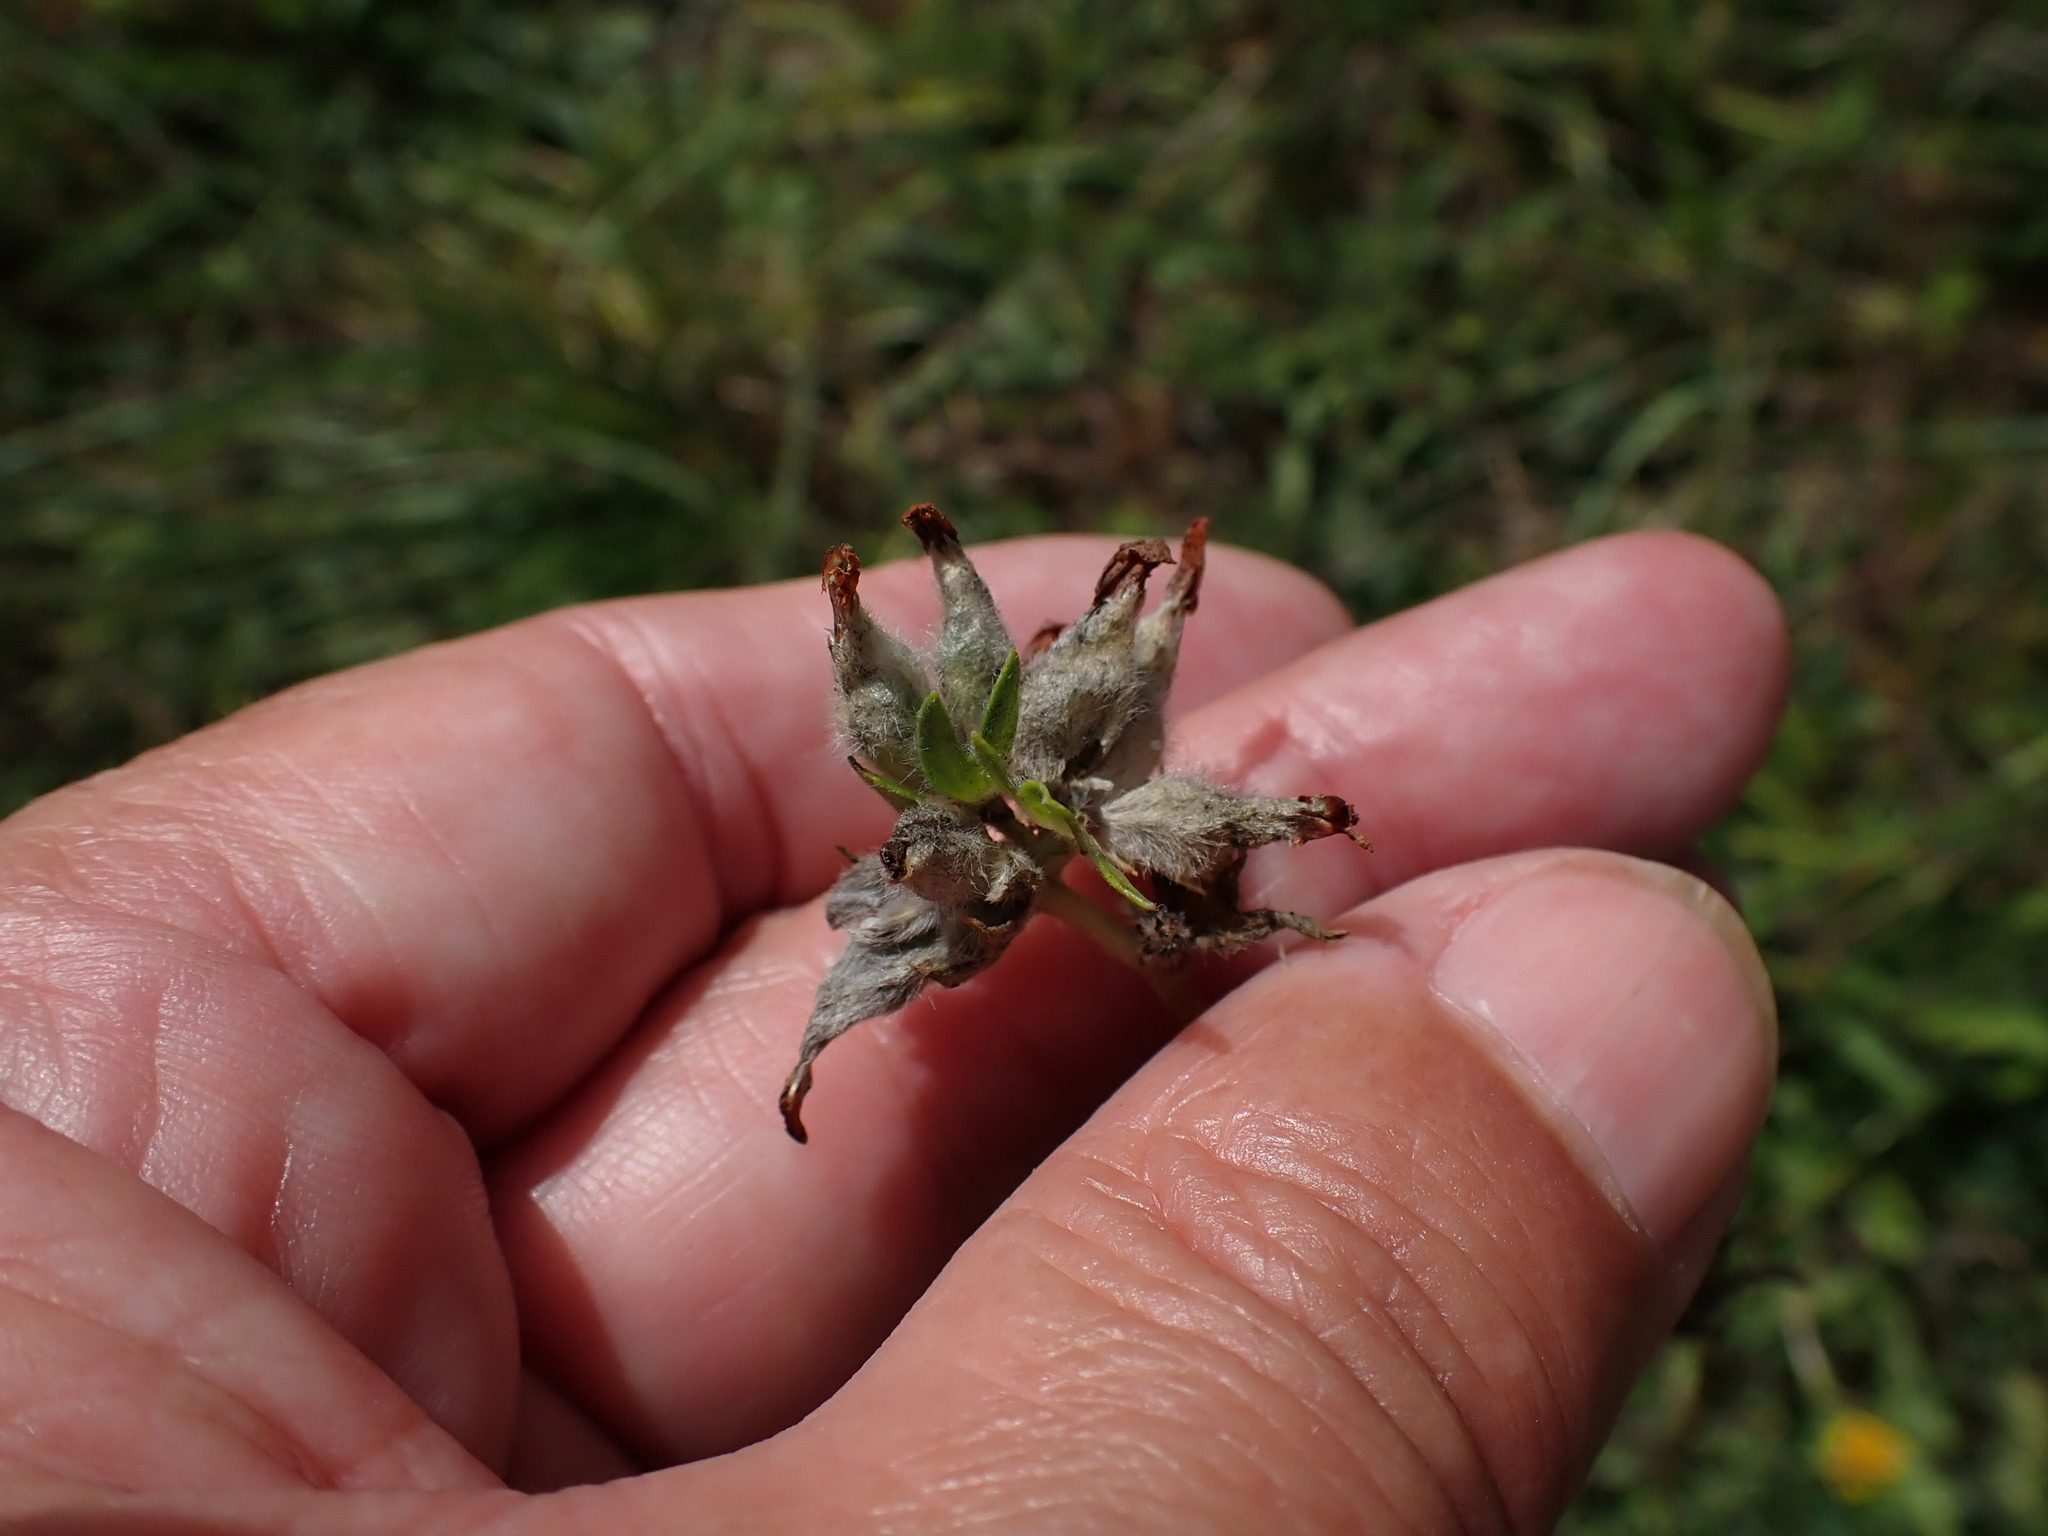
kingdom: Plantae
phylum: Tracheophyta
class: Magnoliopsida
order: Fabales
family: Fabaceae
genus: Anthyllis
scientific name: Anthyllis vulneraria
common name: Kidney vetch
